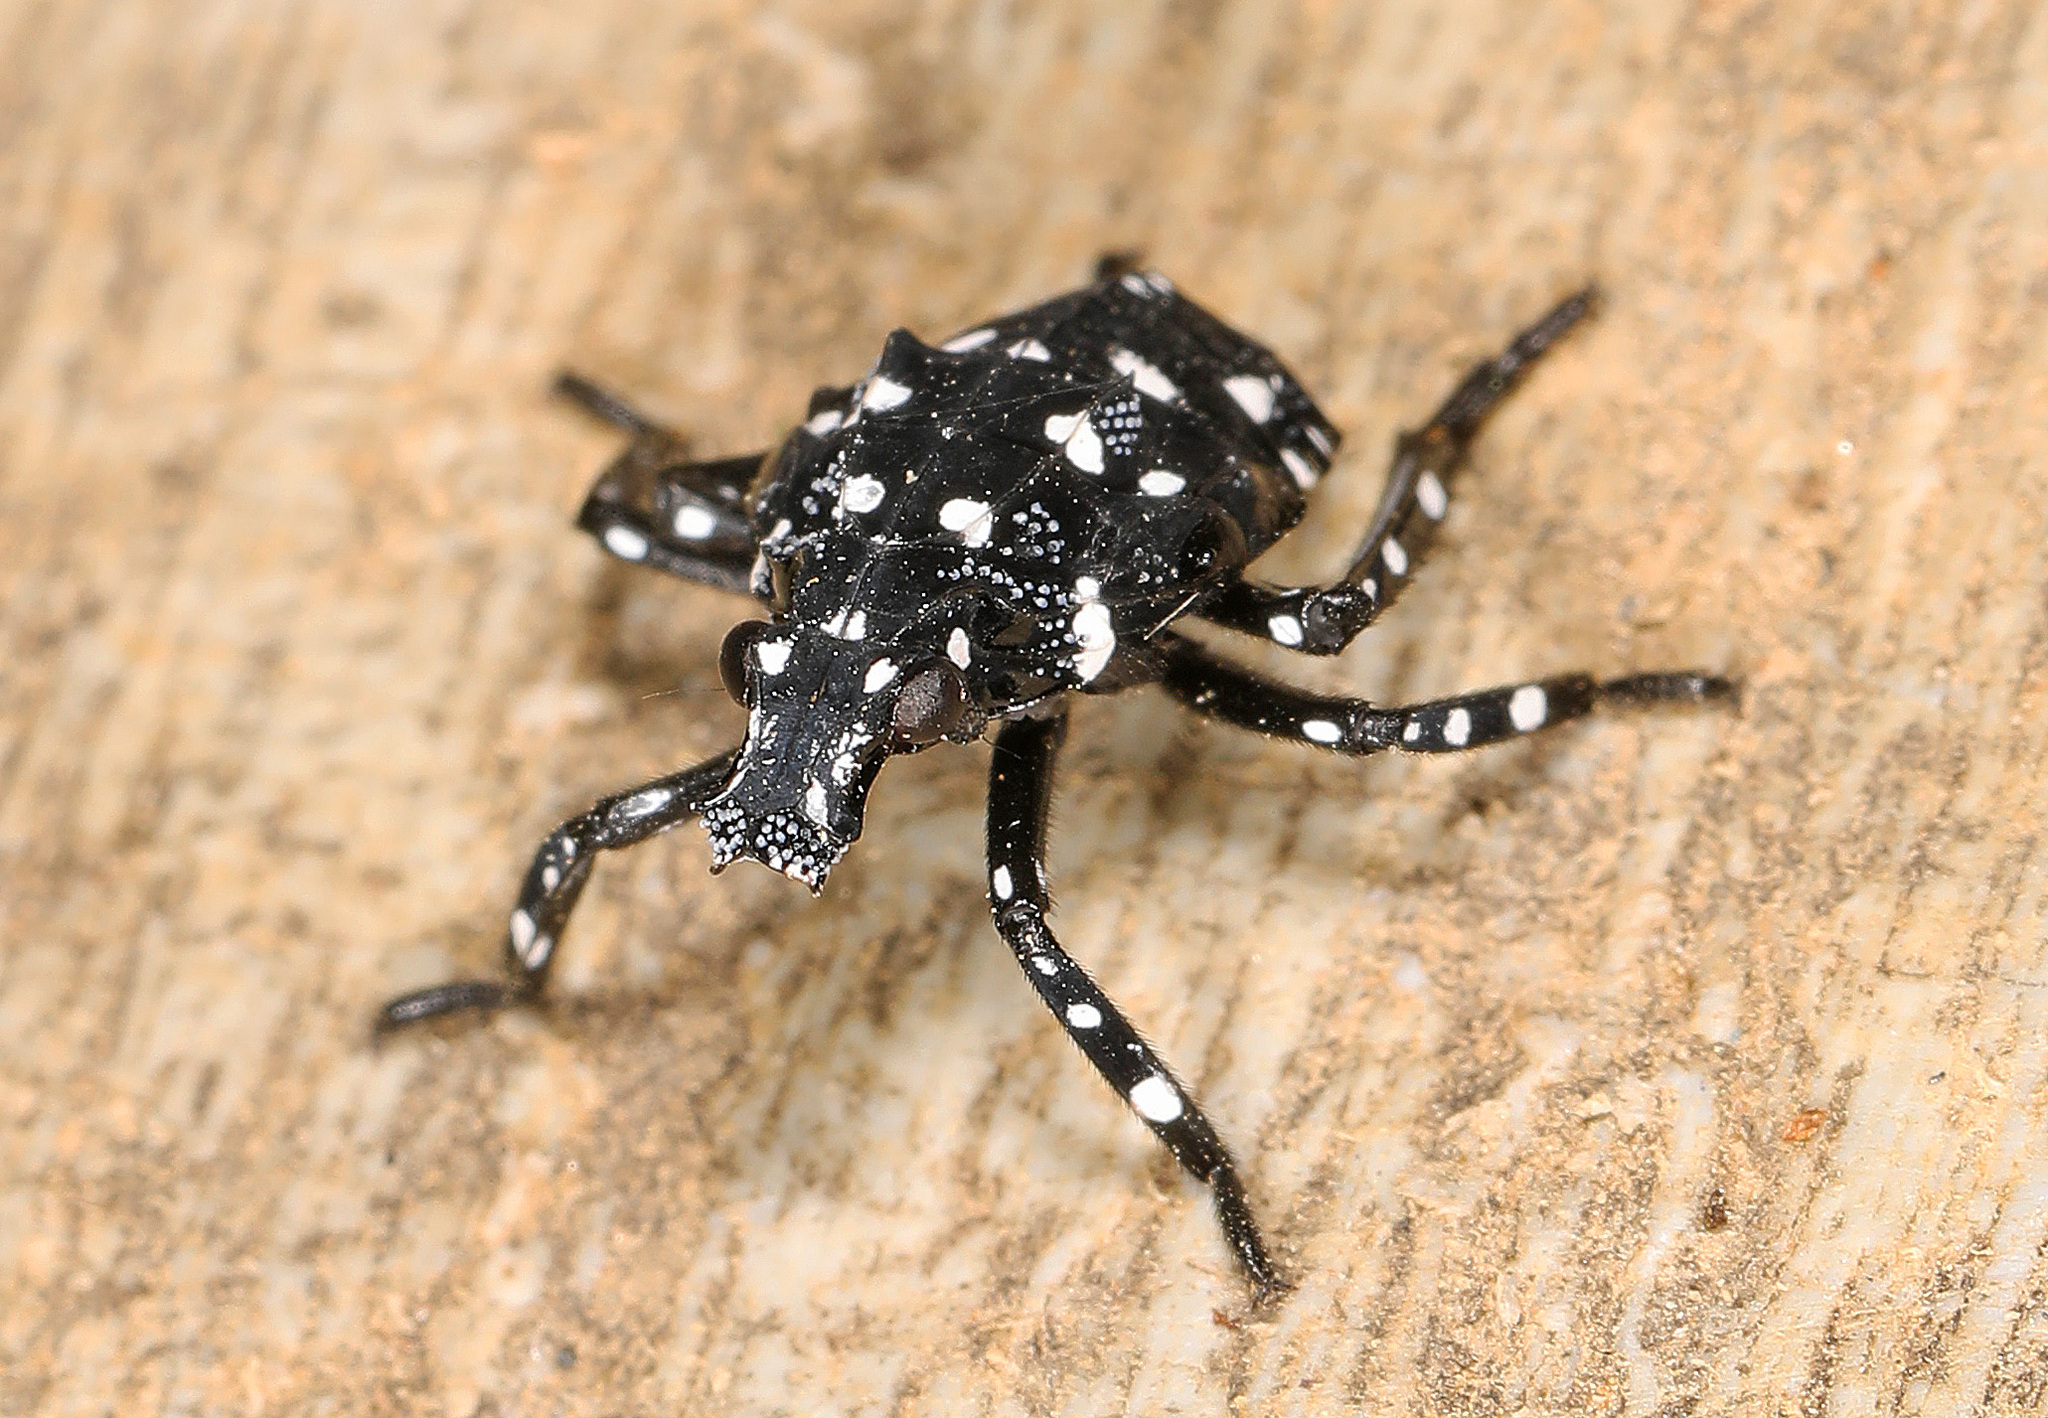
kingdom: Animalia
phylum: Arthropoda
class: Insecta
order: Hemiptera
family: Fulgoridae
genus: Lycorma
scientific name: Lycorma delicatula
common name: Spotted lanternfly
